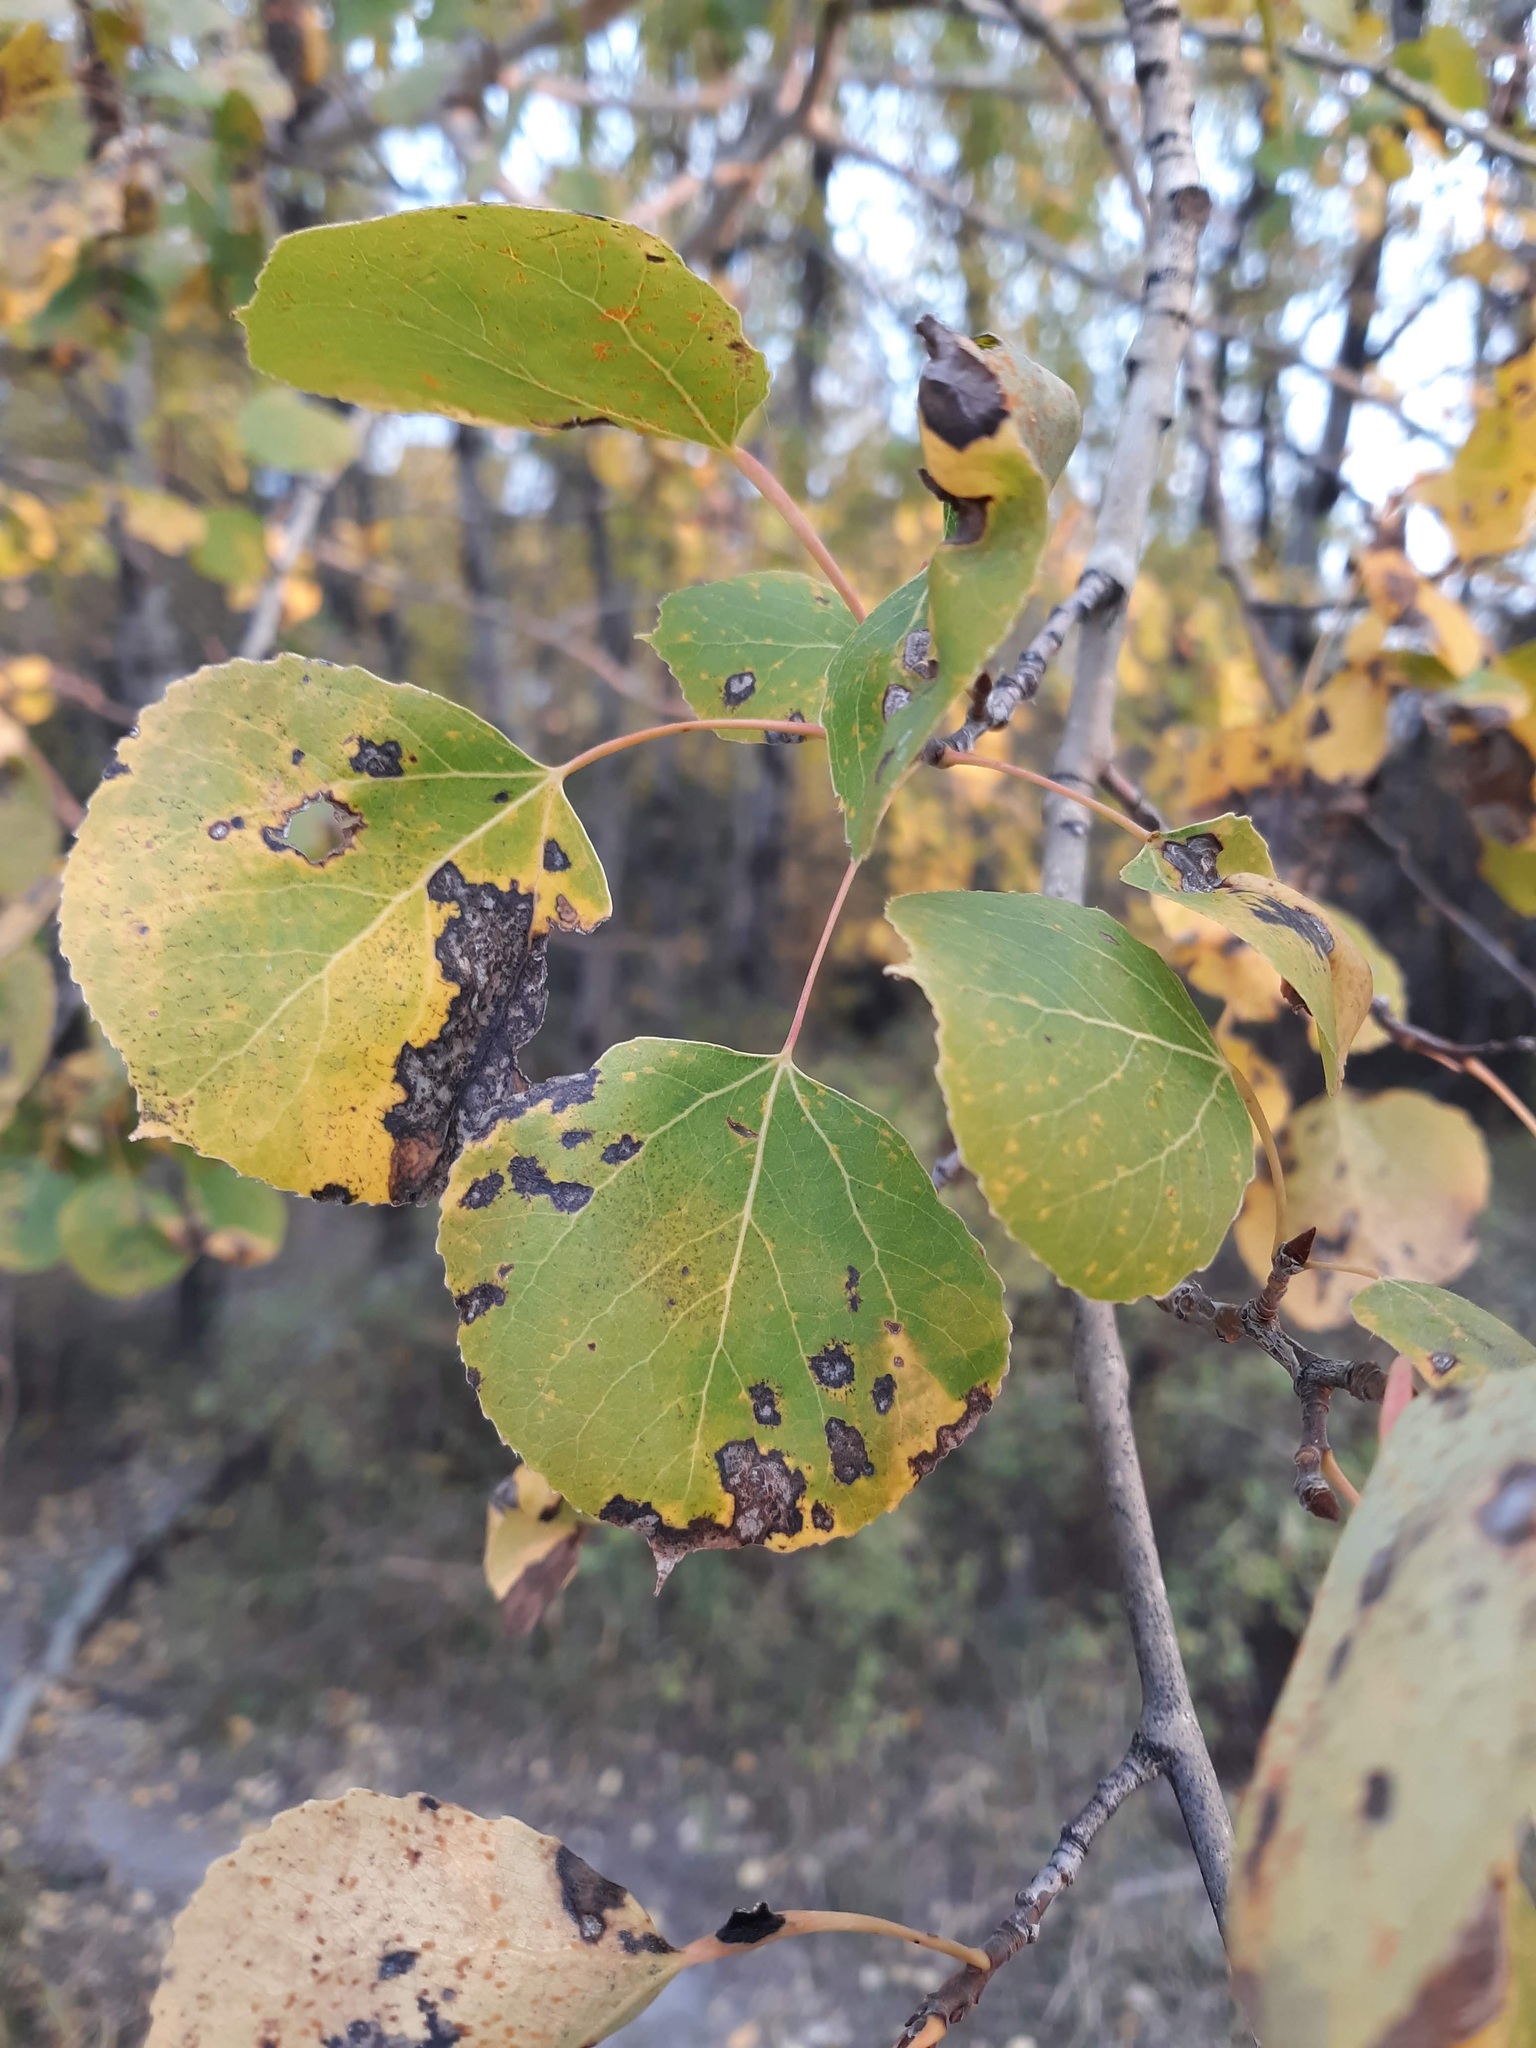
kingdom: Plantae
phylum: Tracheophyta
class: Magnoliopsida
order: Malpighiales
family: Salicaceae
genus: Populus
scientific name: Populus tremuloides
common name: Quaking aspen
